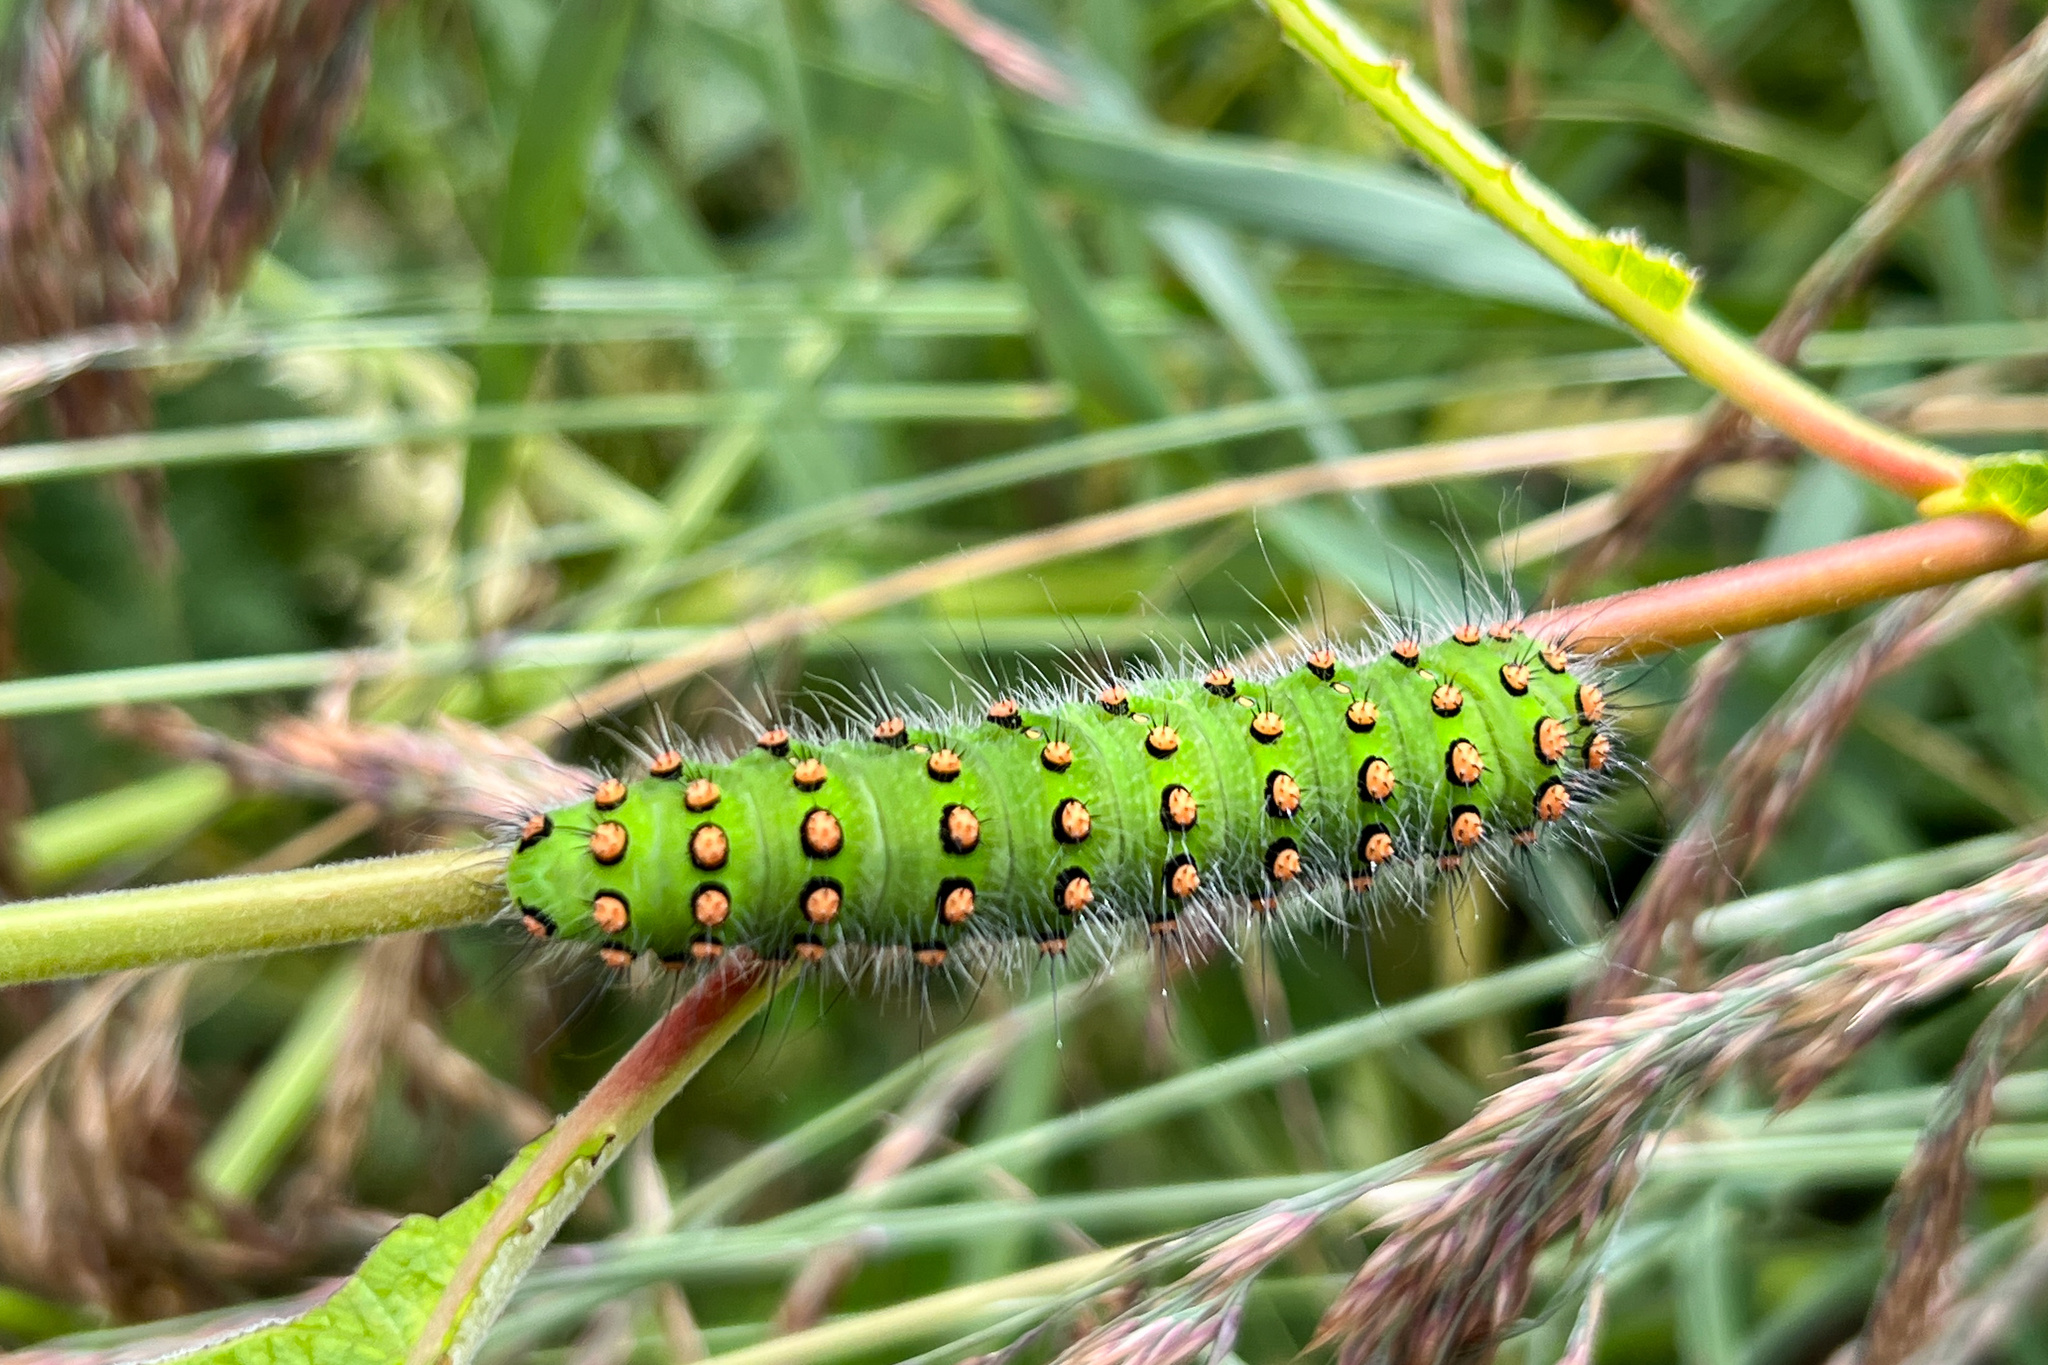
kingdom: Animalia
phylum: Arthropoda
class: Insecta
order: Lepidoptera
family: Saturniidae
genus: Saturnia
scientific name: Saturnia pavonia
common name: Emperor moth
